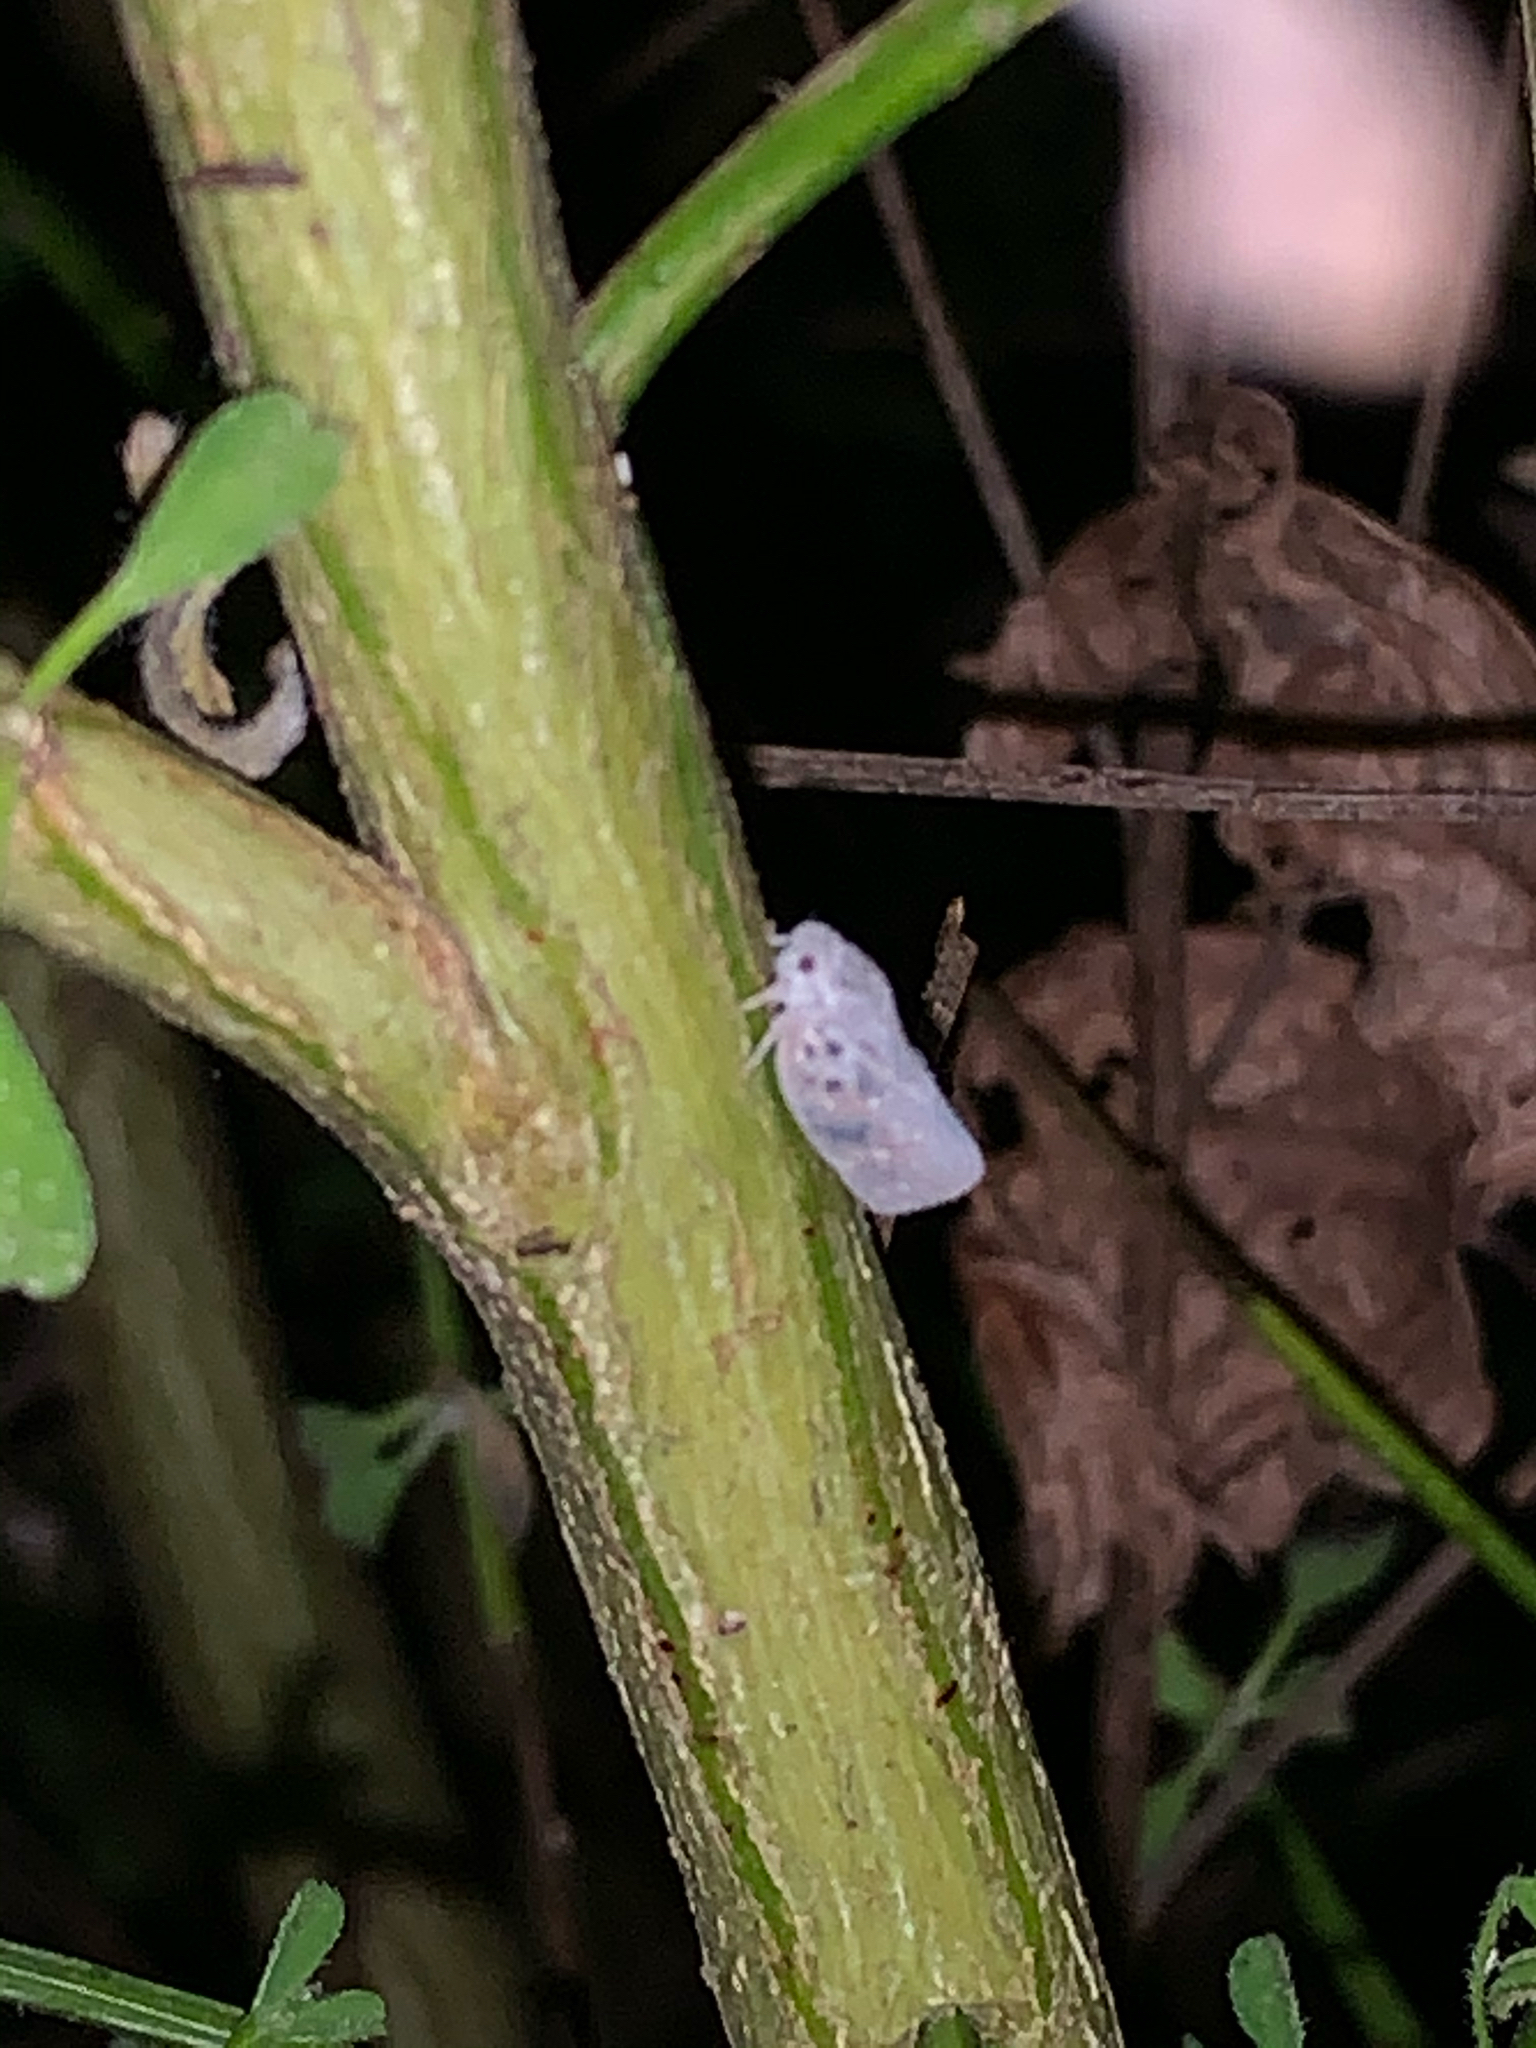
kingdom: Animalia
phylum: Arthropoda
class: Insecta
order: Hemiptera
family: Flatidae
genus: Metcalfa
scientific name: Metcalfa pruinosa
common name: Citrus flatid planthopper
